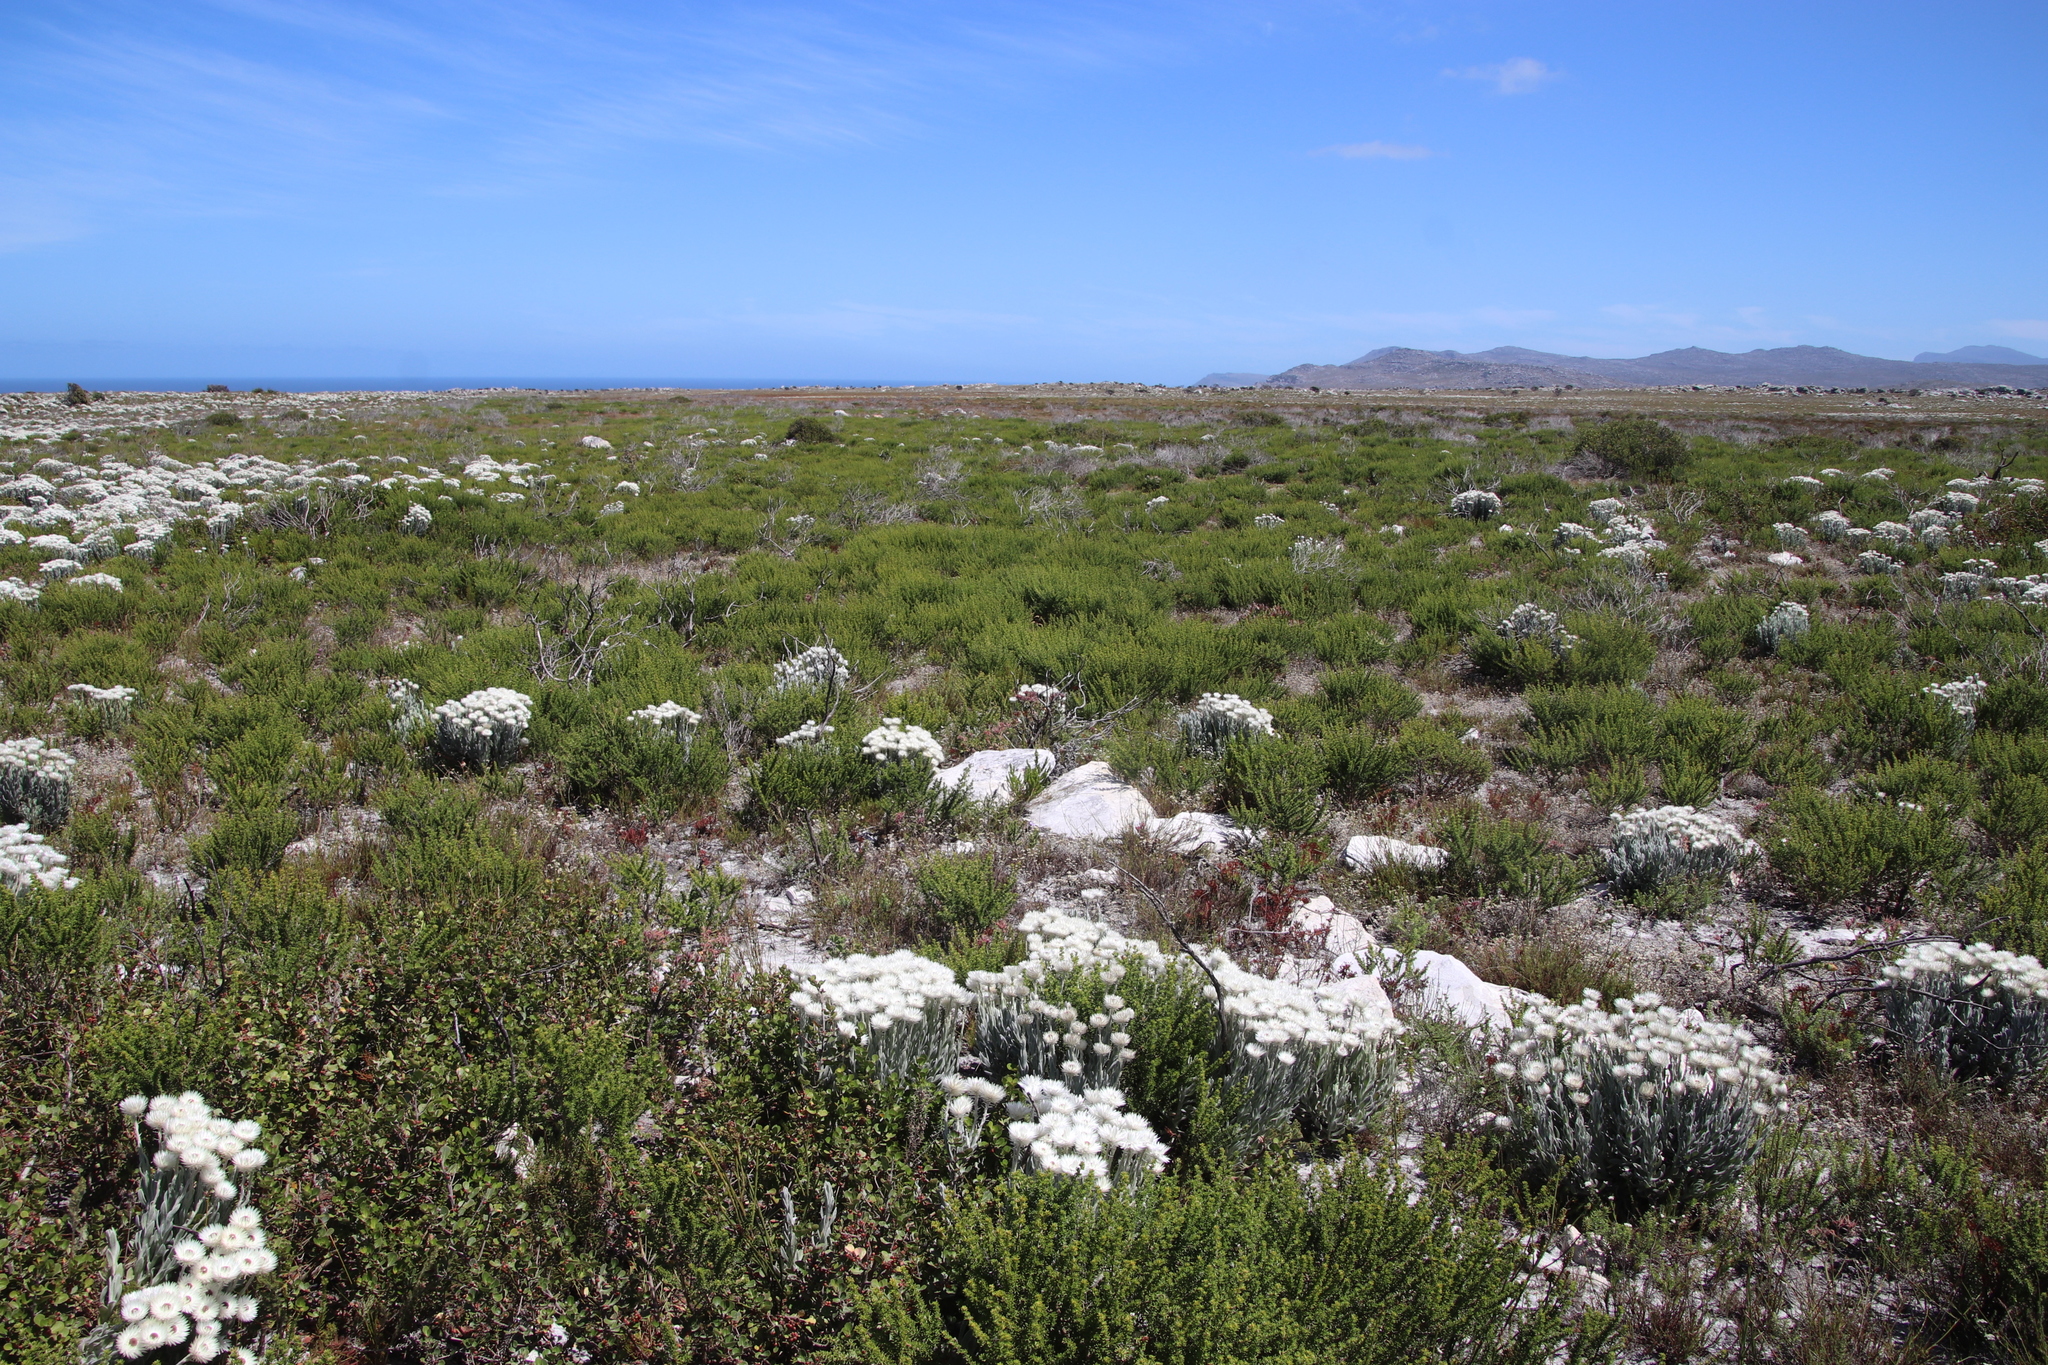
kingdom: Plantae
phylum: Tracheophyta
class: Magnoliopsida
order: Asterales
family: Asteraceae
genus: Syncarpha
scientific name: Syncarpha vestita
